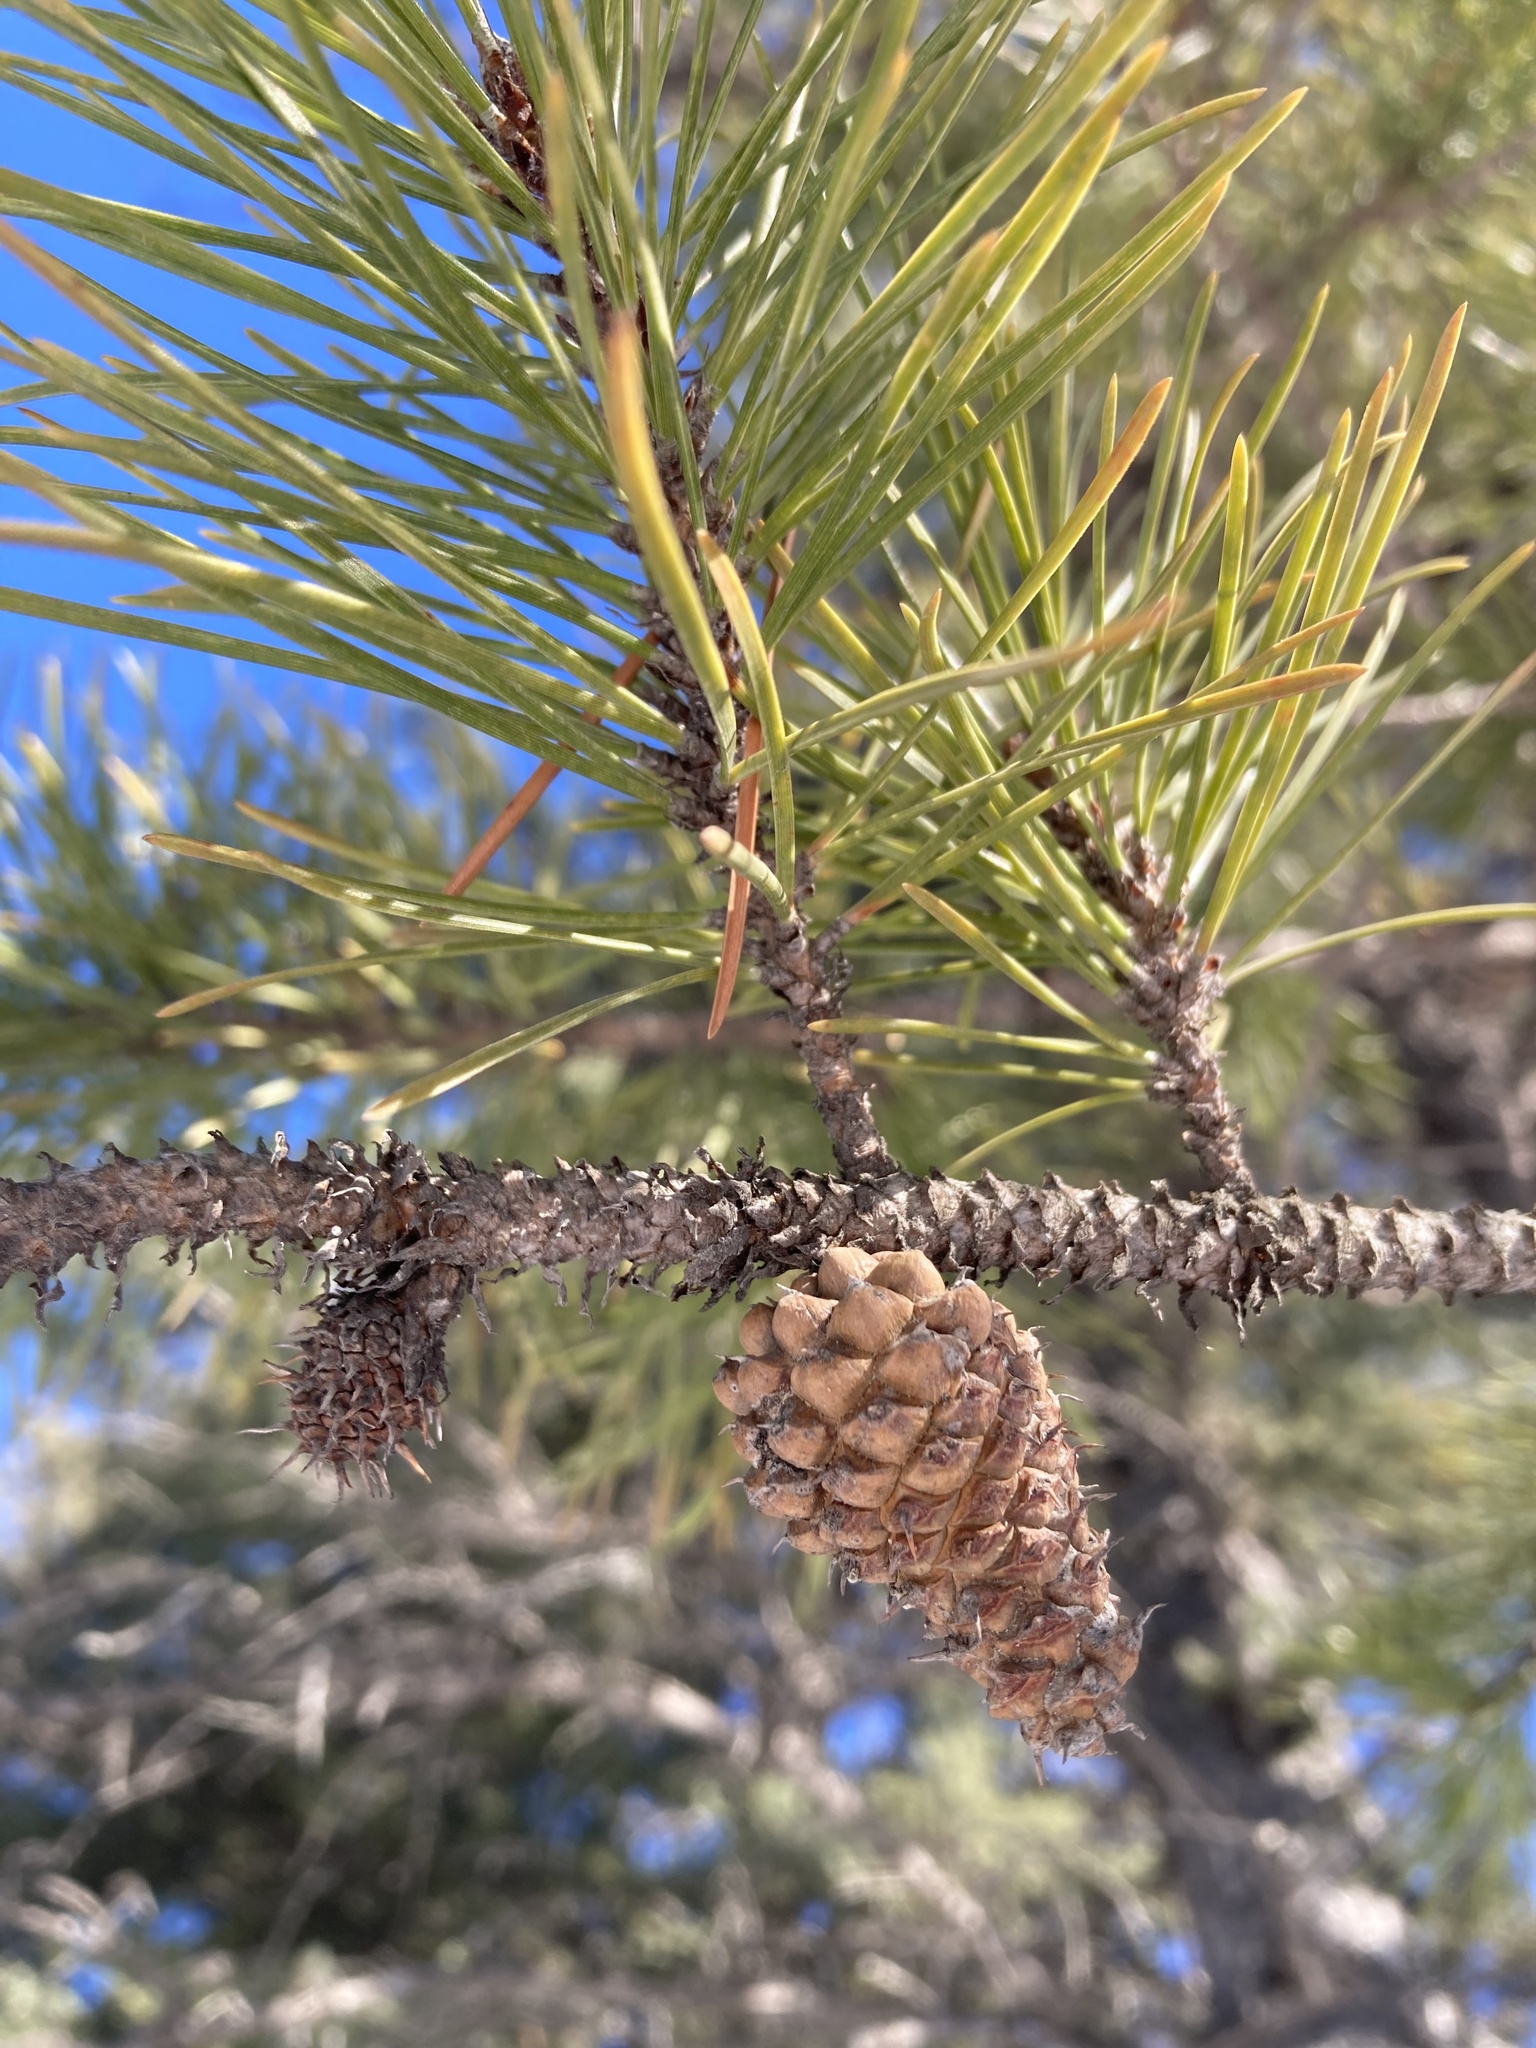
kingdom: Plantae
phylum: Tracheophyta
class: Pinopsida
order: Pinales
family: Pinaceae
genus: Pinus
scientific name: Pinus contorta
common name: Lodgepole pine
